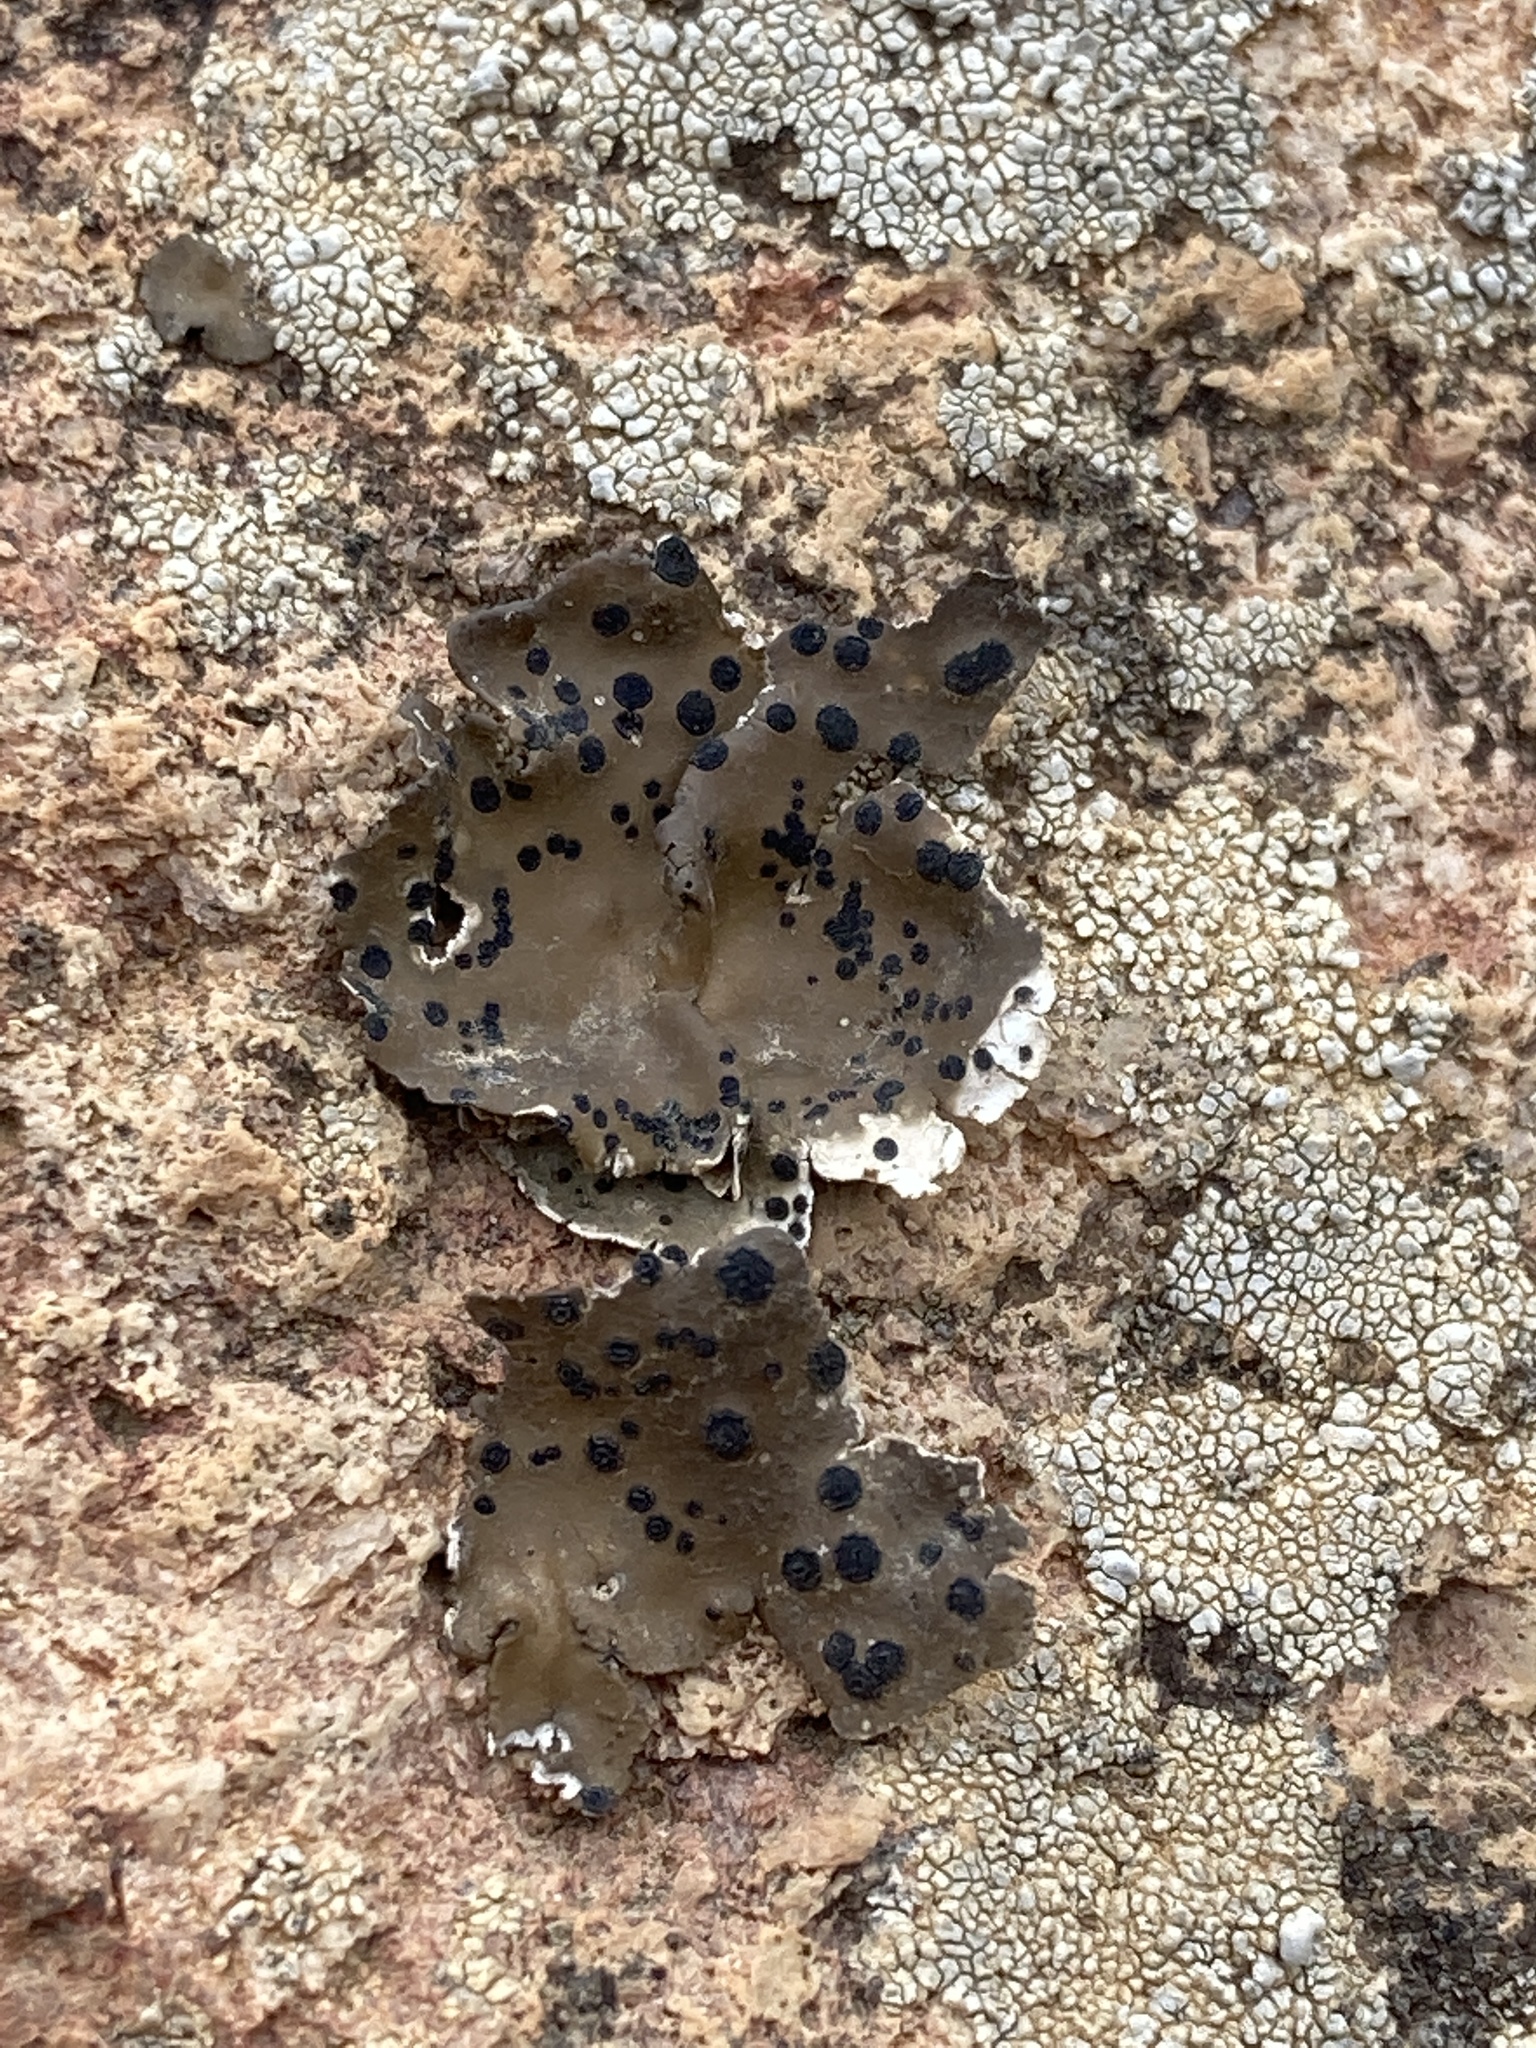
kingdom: Fungi
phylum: Ascomycota
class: Lecanoromycetes
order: Umbilicariales
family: Umbilicariaceae
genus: Umbilicaria
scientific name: Umbilicaria phaea
